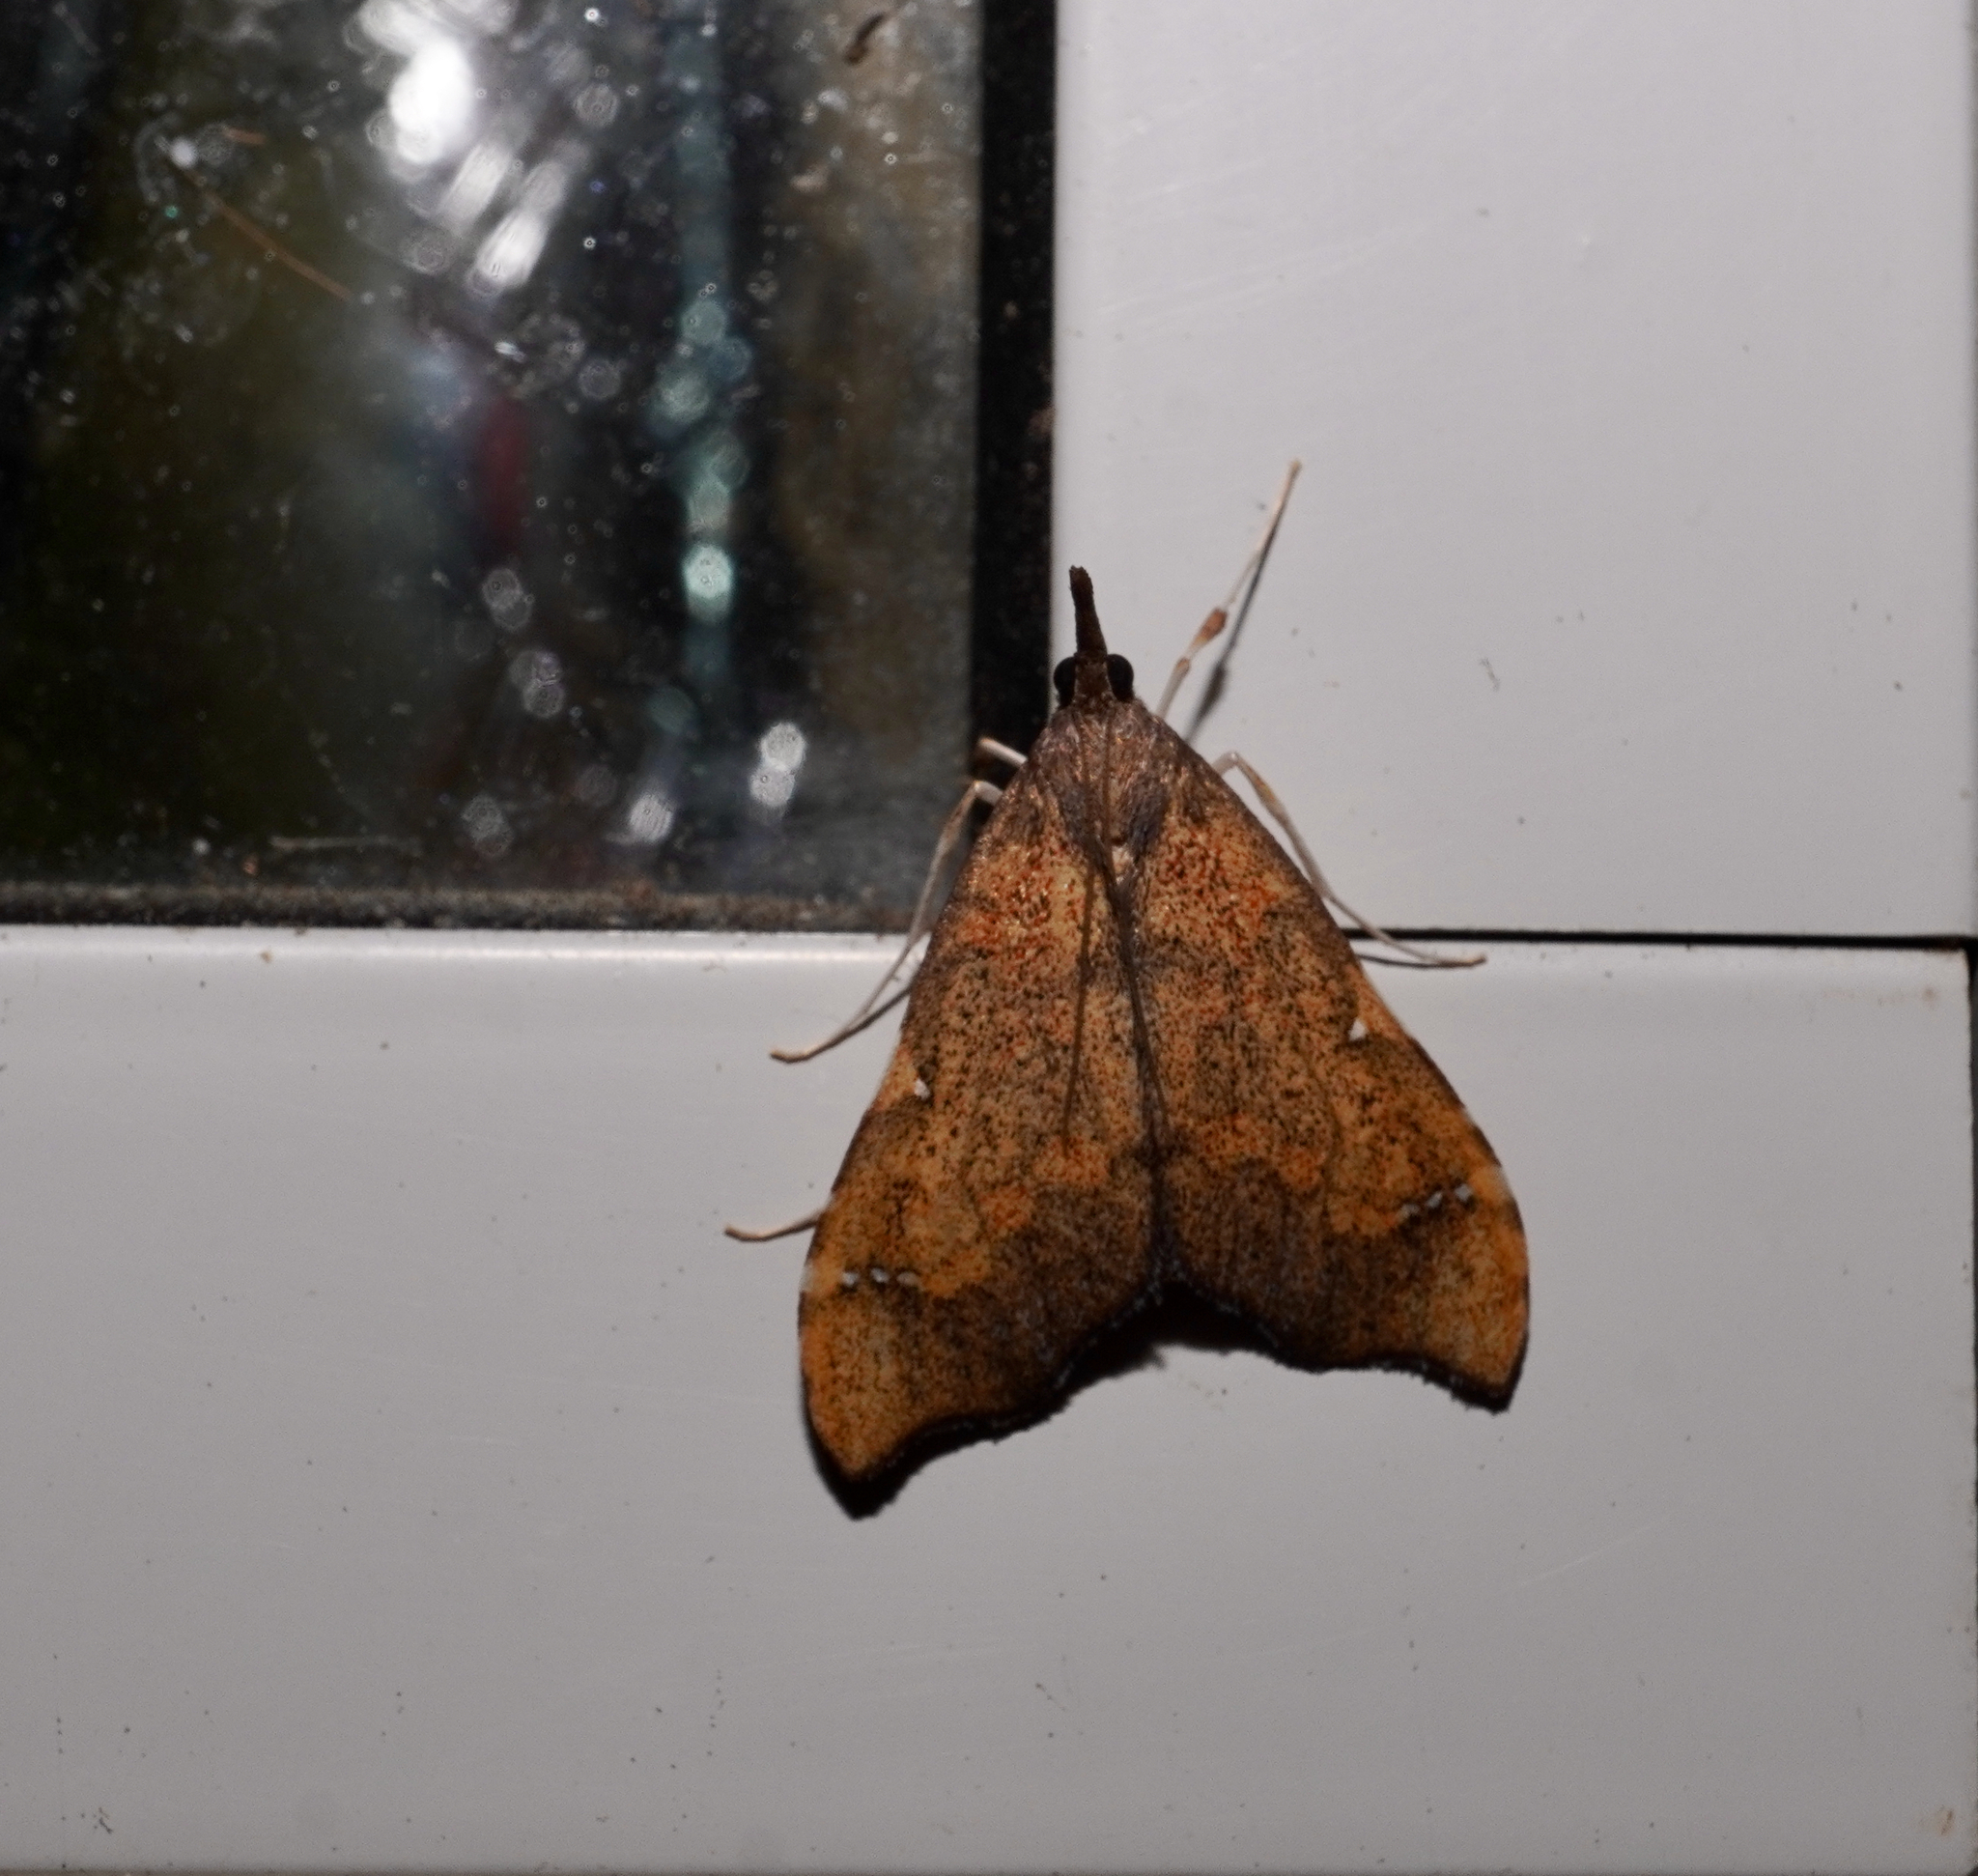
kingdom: Animalia
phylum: Arthropoda
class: Insecta
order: Lepidoptera
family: Crambidae
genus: Deana
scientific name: Deana hybreasalis
